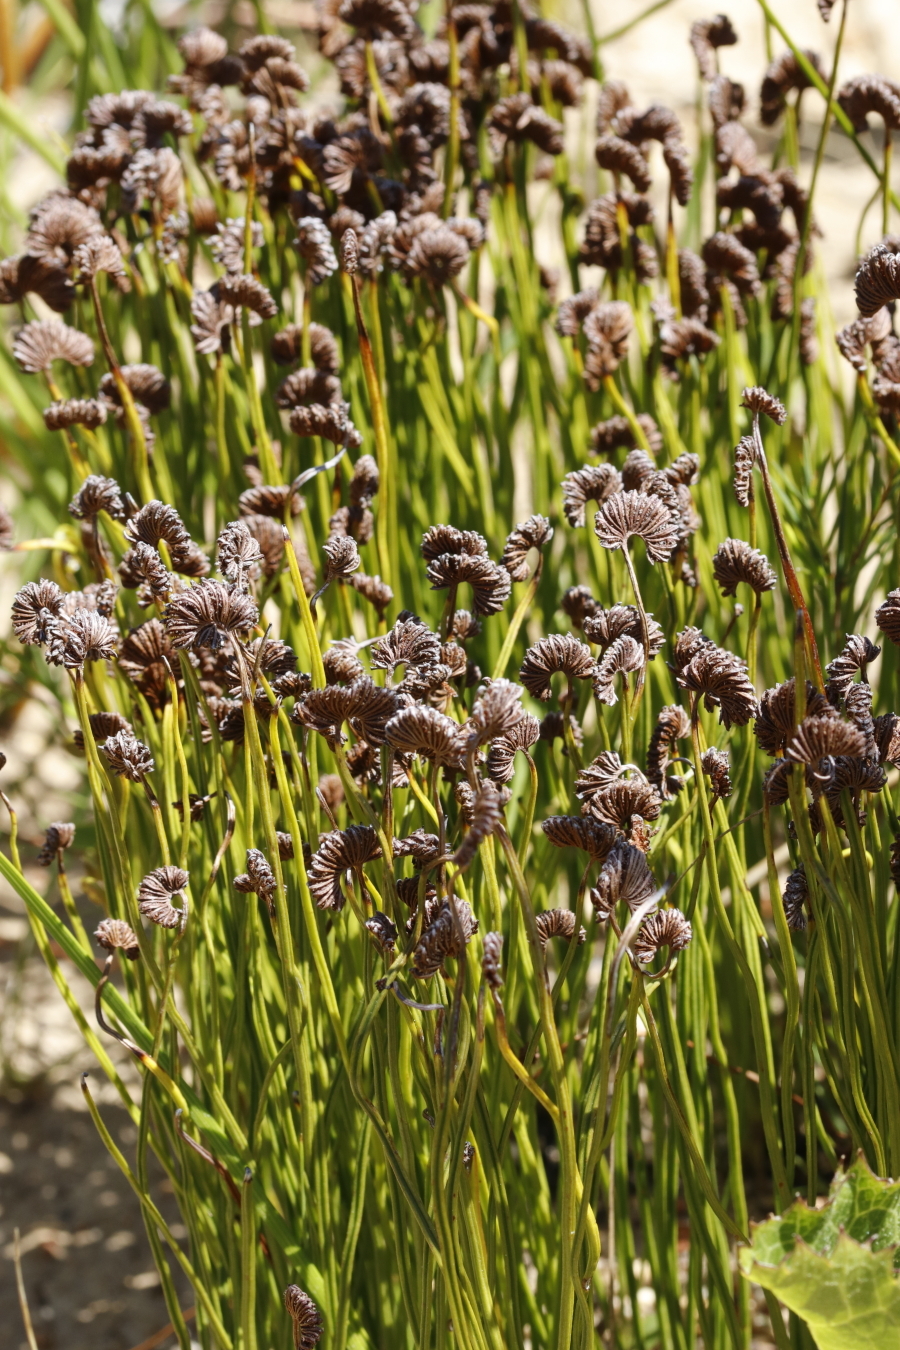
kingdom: Plantae
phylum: Tracheophyta
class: Polypodiopsida
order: Schizaeales
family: Schizaeaceae
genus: Schizaea
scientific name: Schizaea pectinata
